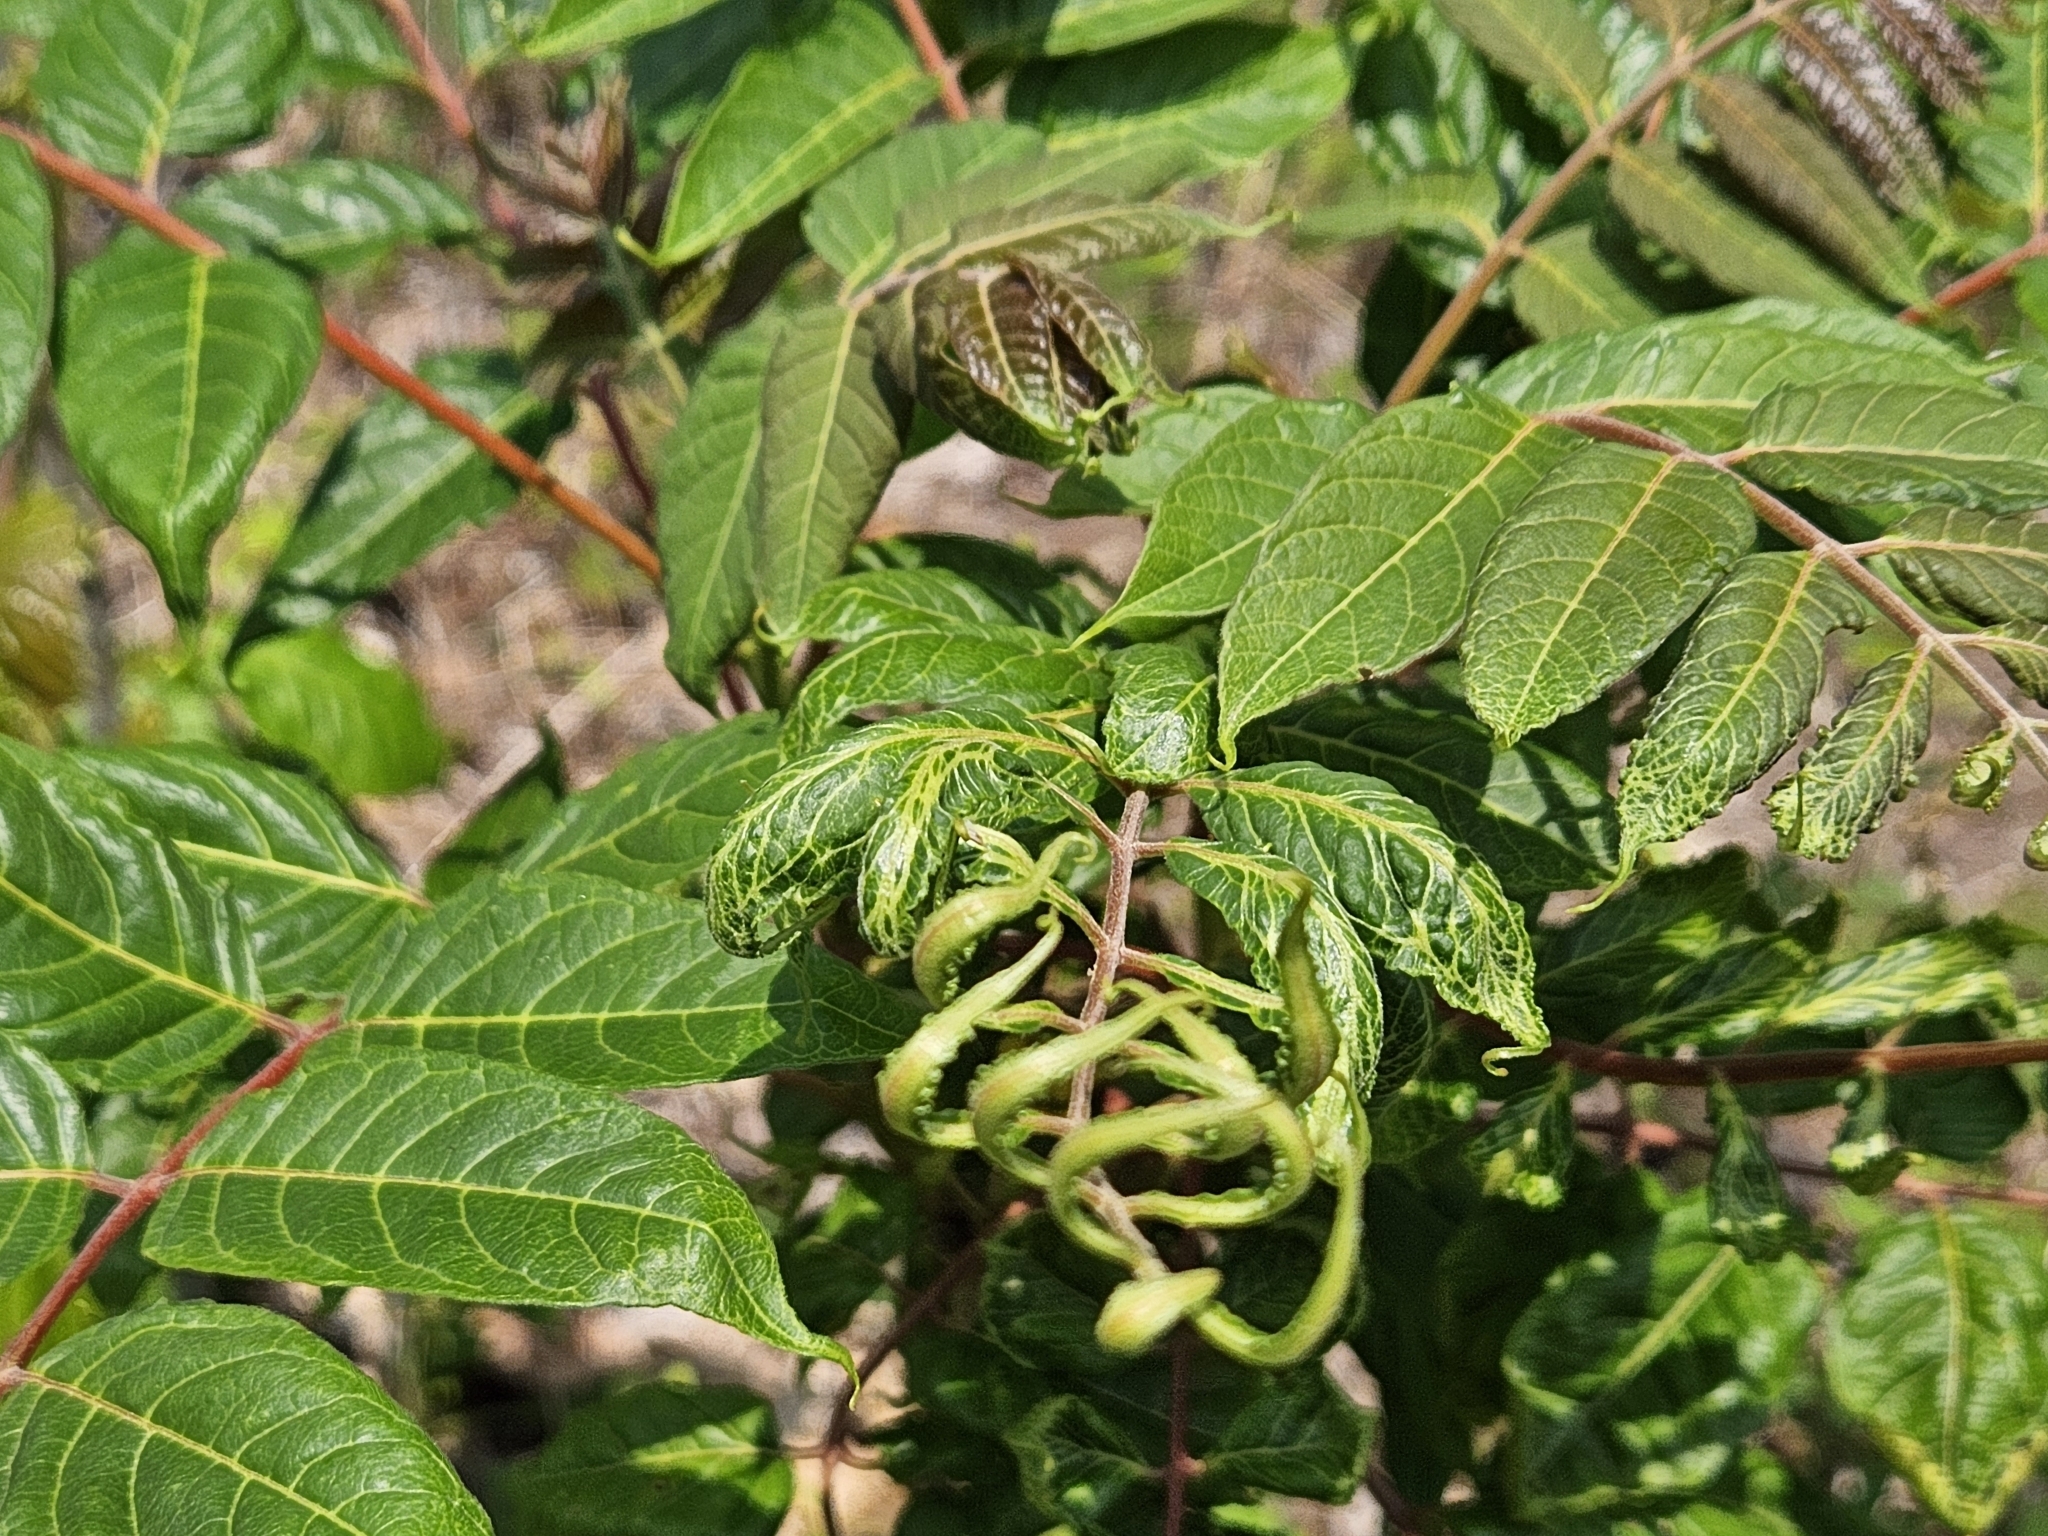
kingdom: Plantae
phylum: Tracheophyta
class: Magnoliopsida
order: Sapindales
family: Simaroubaceae
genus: Ailanthus
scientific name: Ailanthus altissima
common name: Tree-of-heaven
